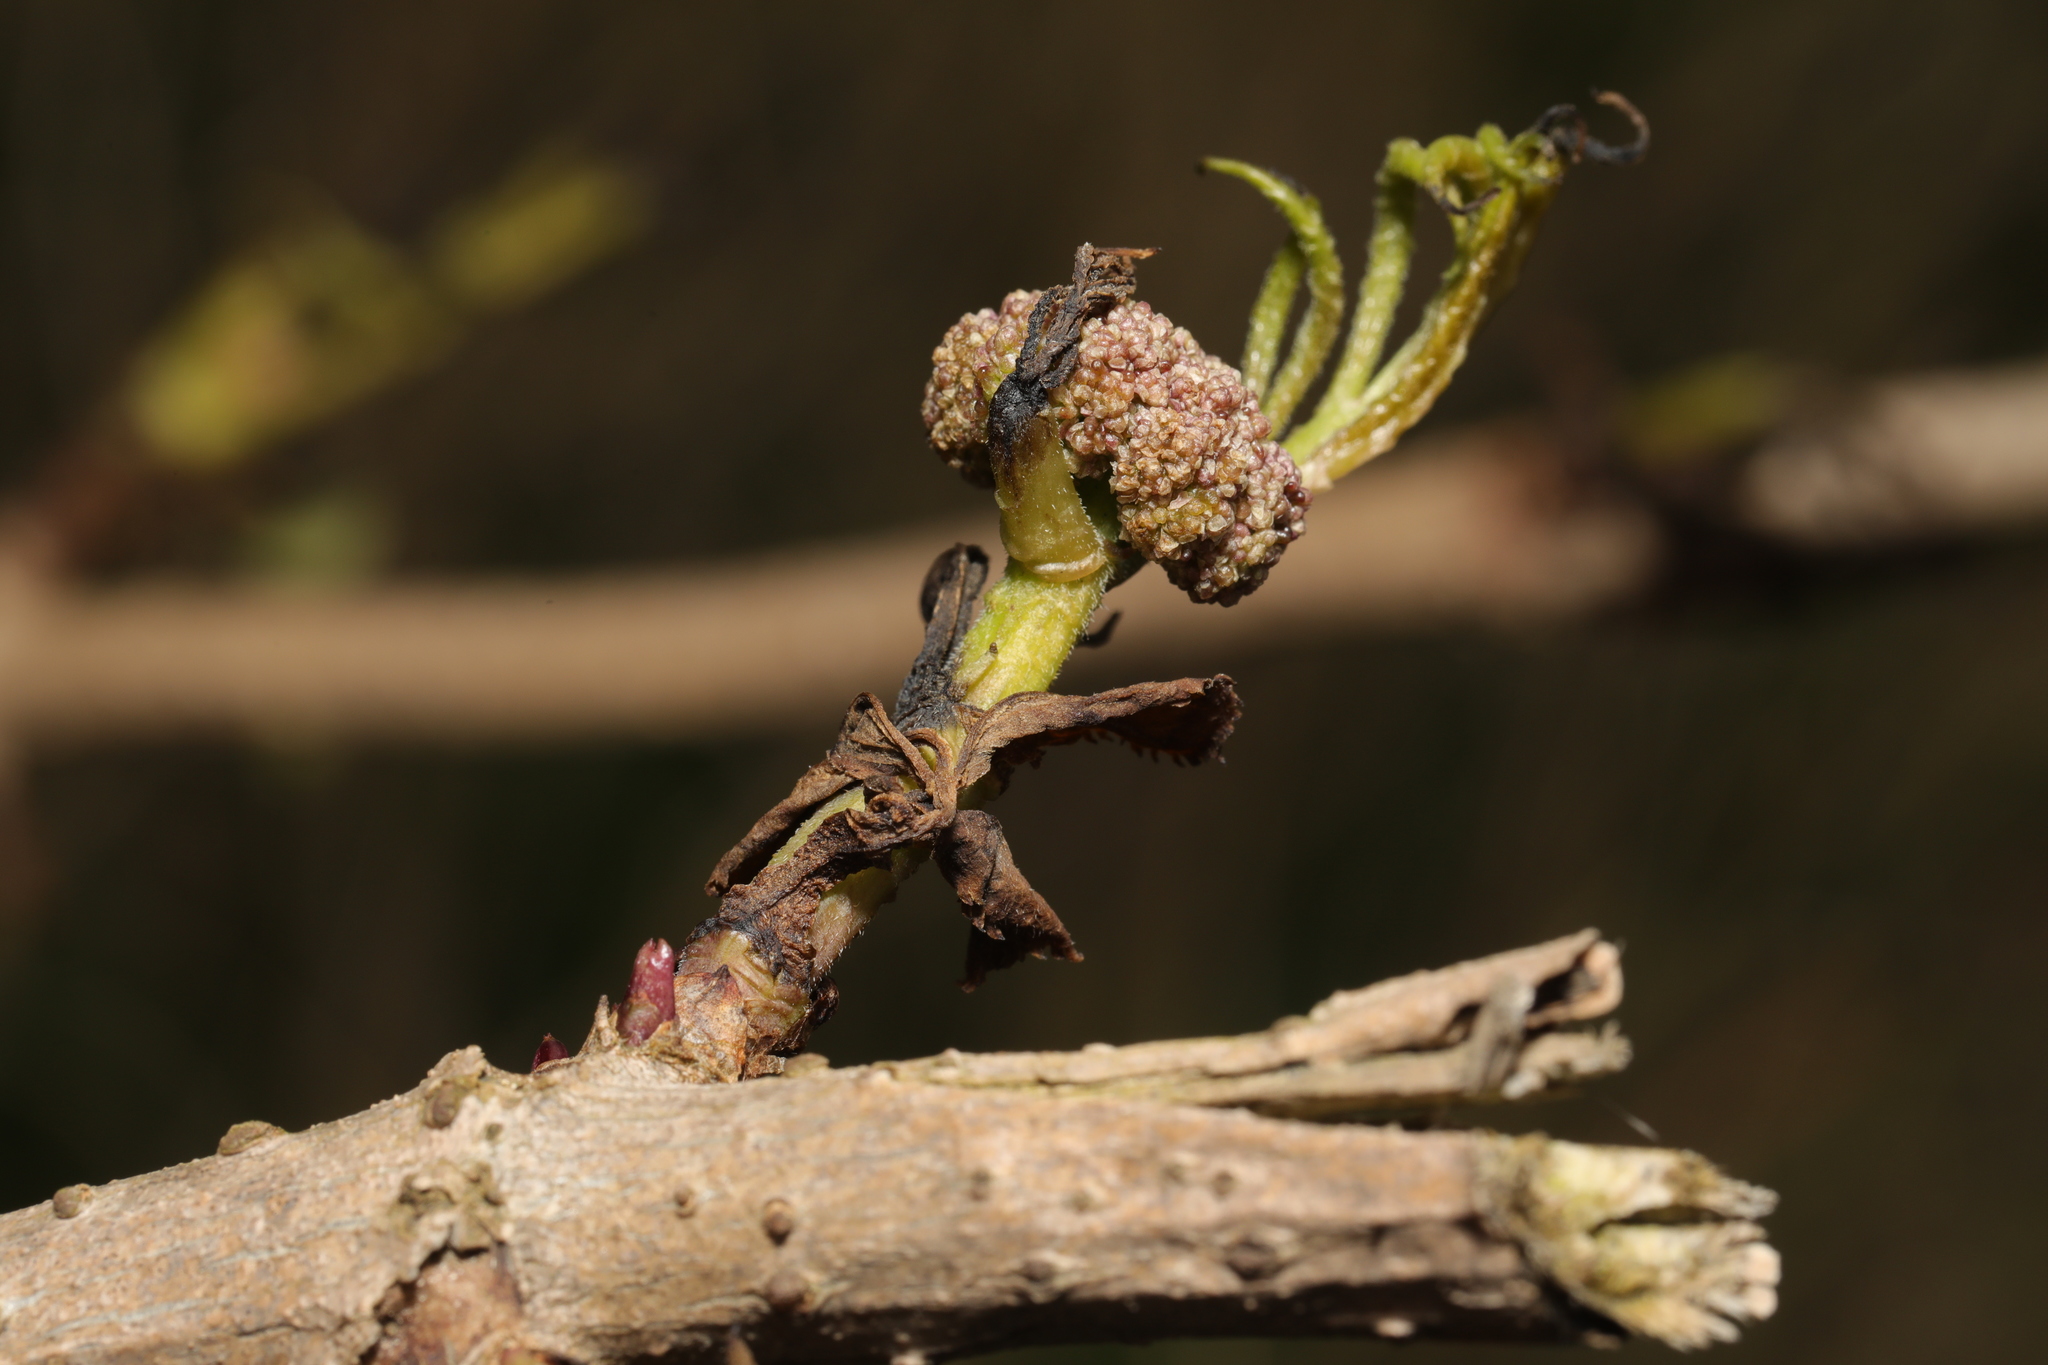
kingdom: Plantae
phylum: Tracheophyta
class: Magnoliopsida
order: Dipsacales
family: Viburnaceae
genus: Sambucus
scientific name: Sambucus nigra
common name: Elder
